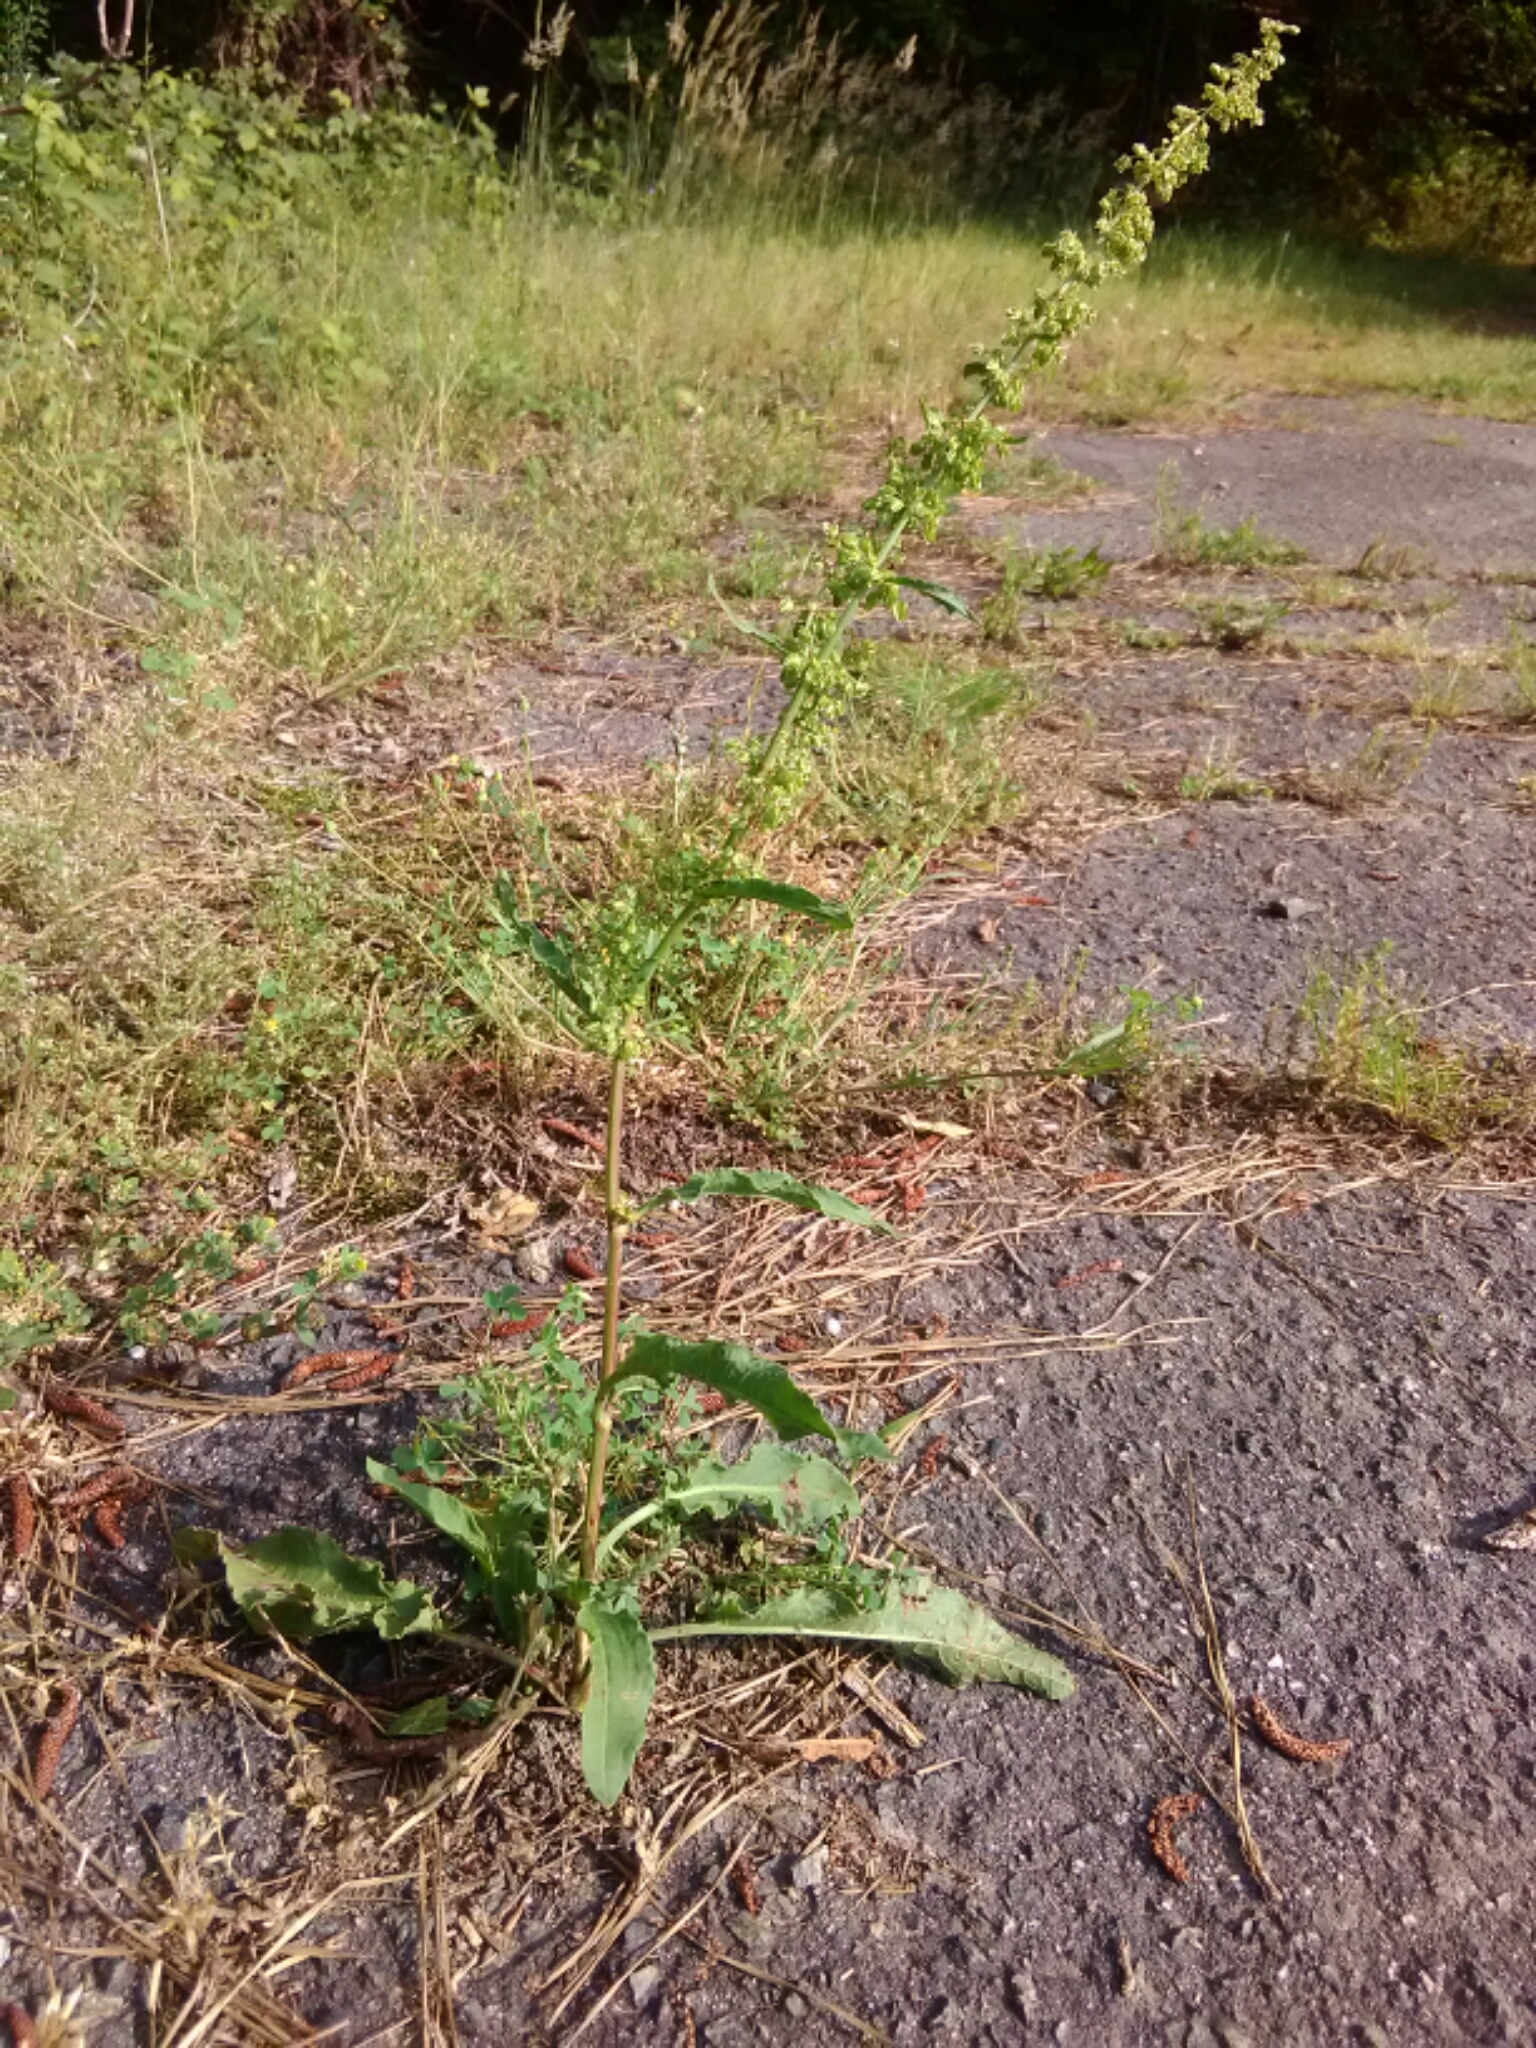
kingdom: Plantae
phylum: Tracheophyta
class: Magnoliopsida
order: Caryophyllales
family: Polygonaceae
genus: Rumex
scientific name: Rumex crispus
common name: Curled dock
